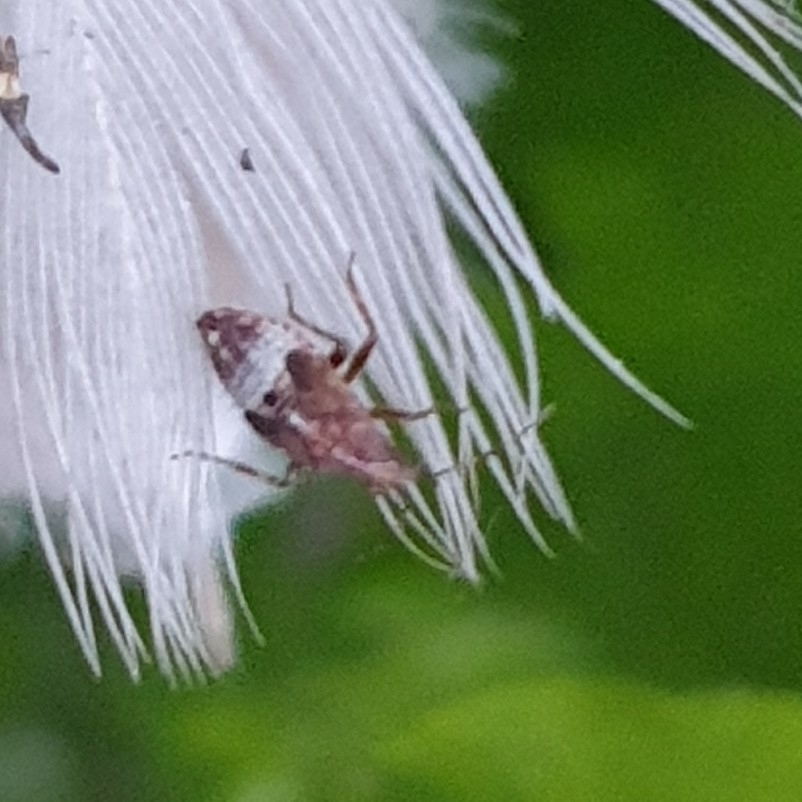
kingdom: Animalia
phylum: Arthropoda
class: Insecta
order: Hemiptera
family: Miridae
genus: Deraeocoris
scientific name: Deraeocoris flavilinea
